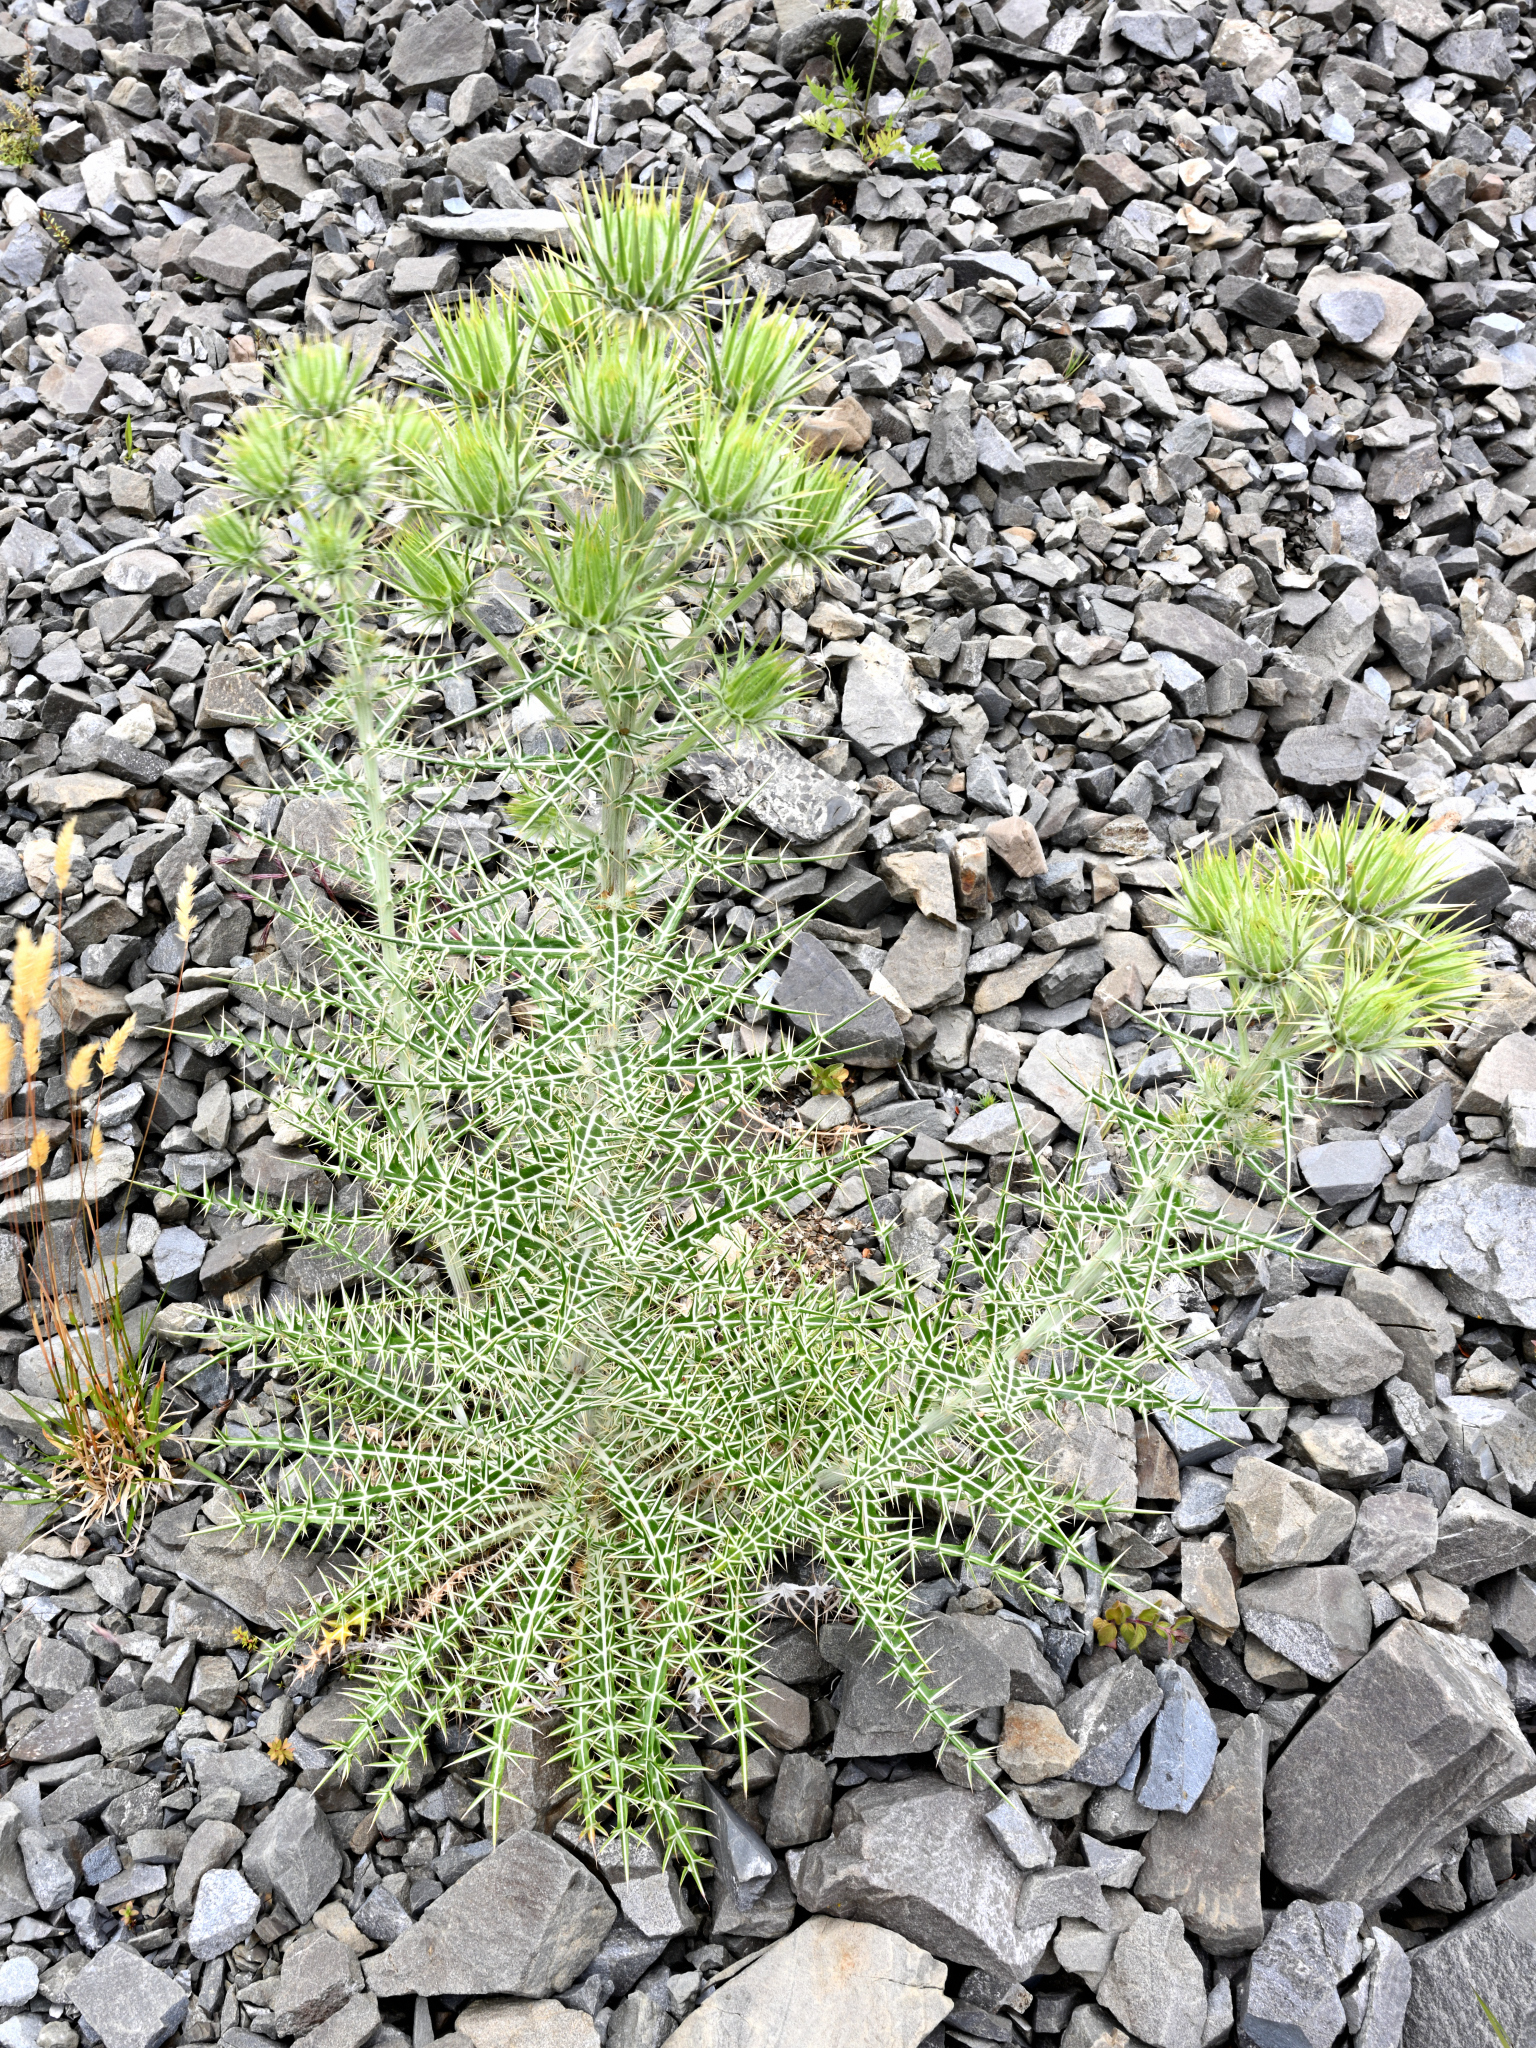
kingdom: Plantae
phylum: Tracheophyta
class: Magnoliopsida
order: Asterales
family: Asteraceae
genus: Ptilostemon
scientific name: Ptilostemon afer
